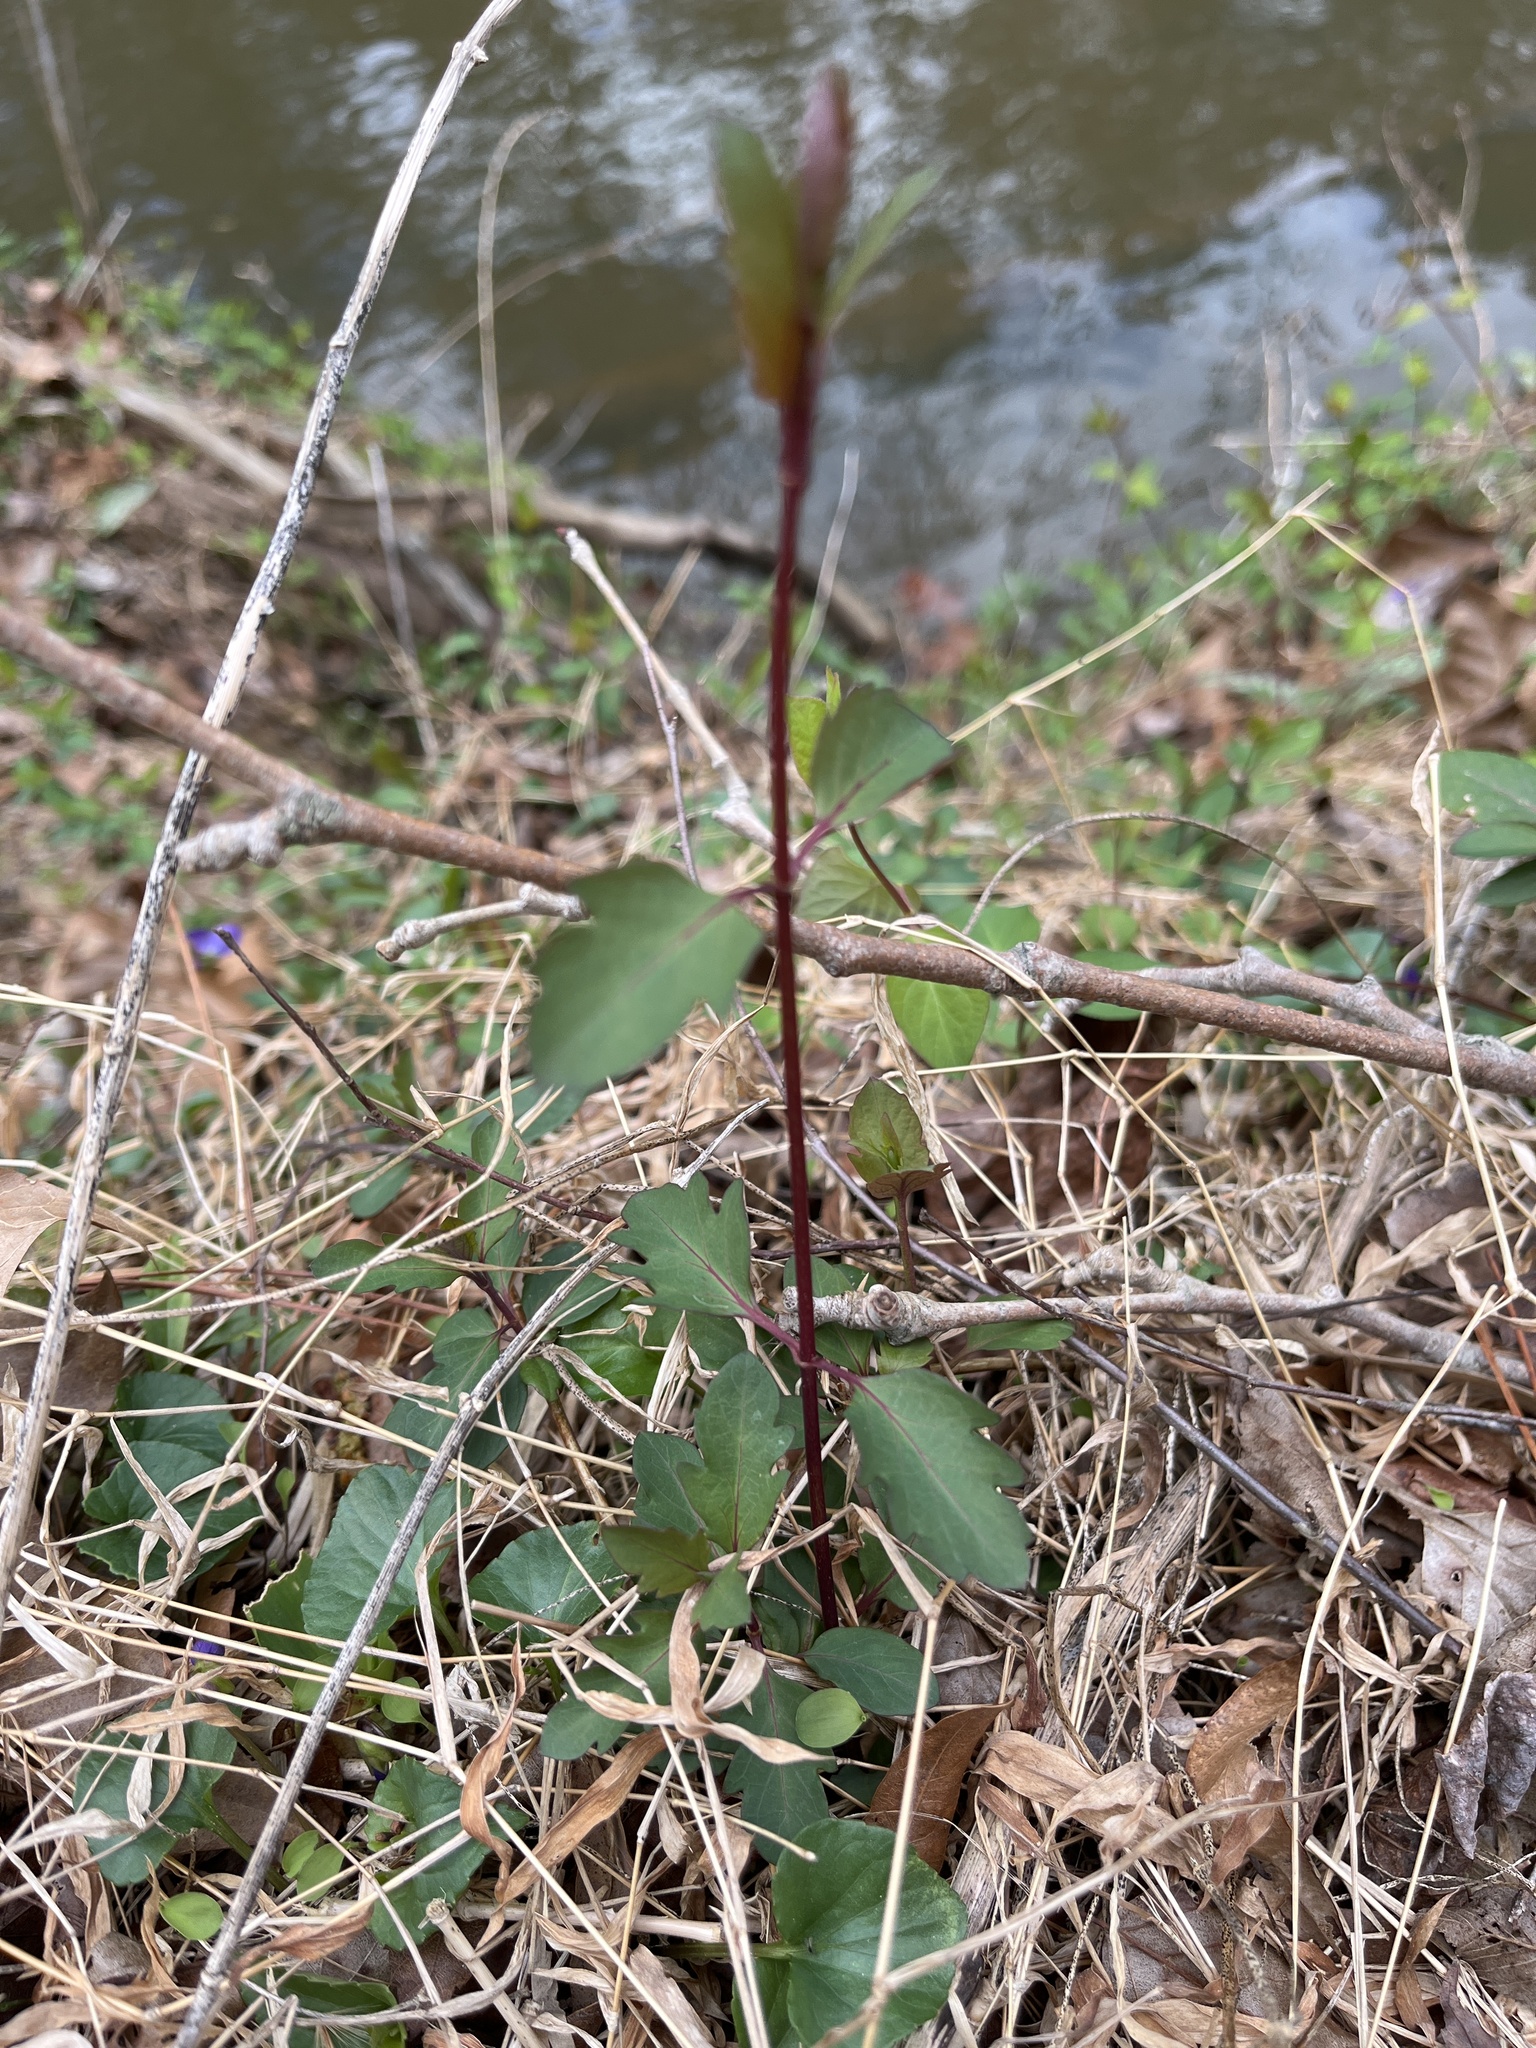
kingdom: Plantae
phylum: Tracheophyta
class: Magnoliopsida
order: Dipsacales
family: Caprifoliaceae
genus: Lonicera
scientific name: Lonicera japonica
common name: Japanese honeysuckle
